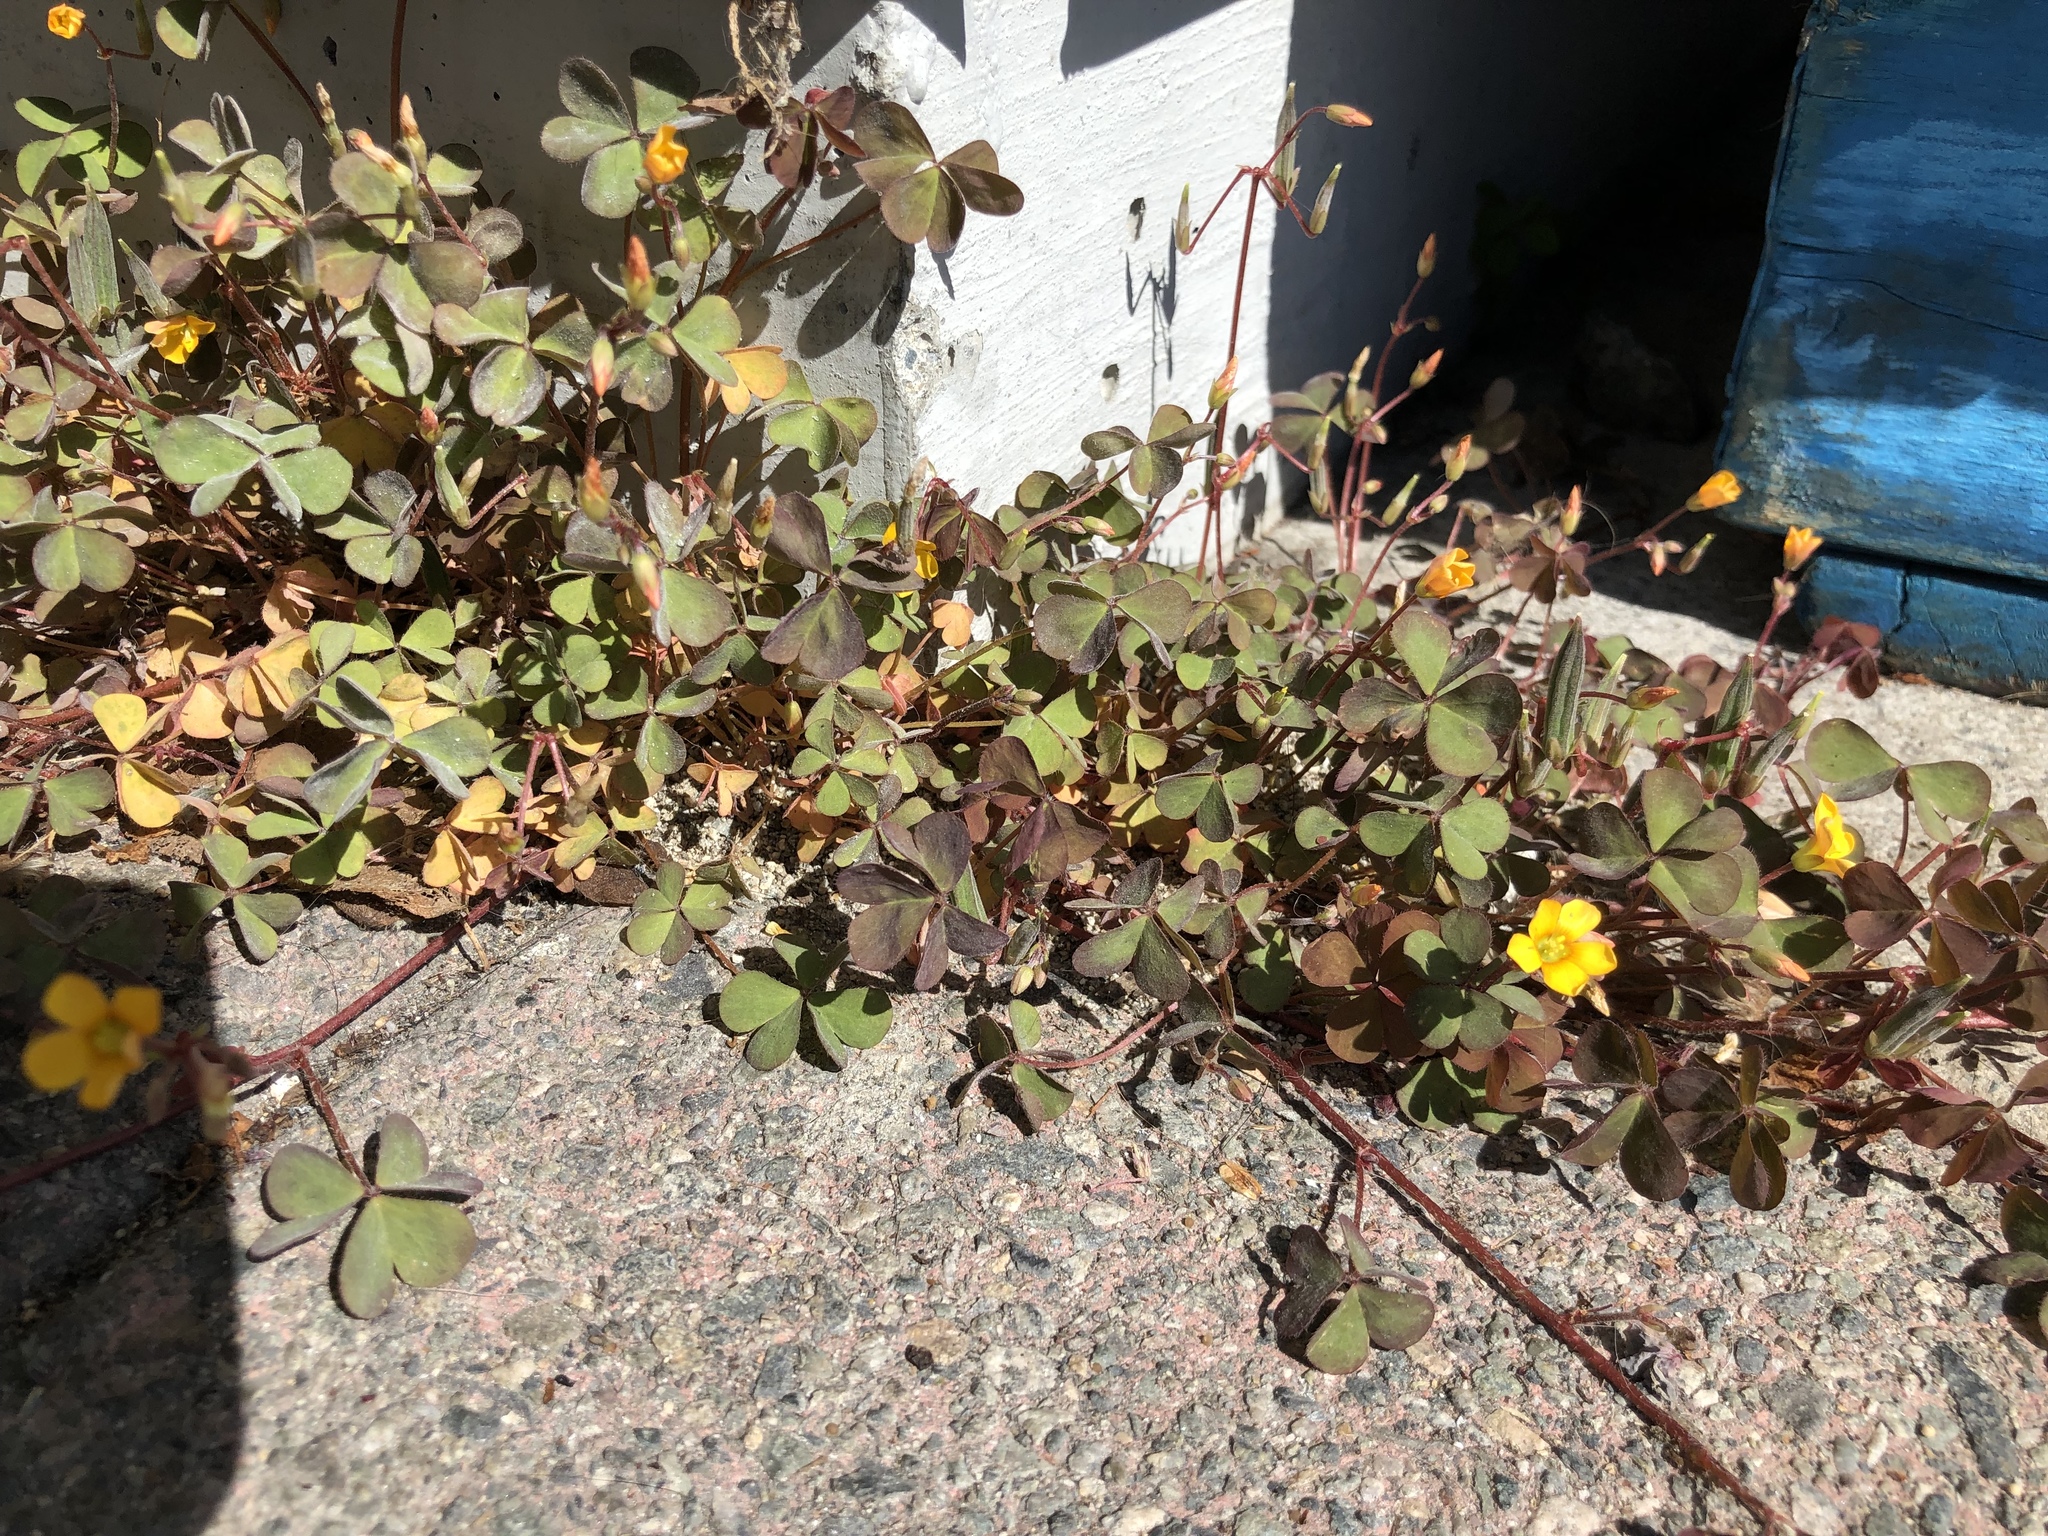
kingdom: Plantae
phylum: Tracheophyta
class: Magnoliopsida
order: Oxalidales
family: Oxalidaceae
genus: Oxalis
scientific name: Oxalis corniculata
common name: Procumbent yellow-sorrel
